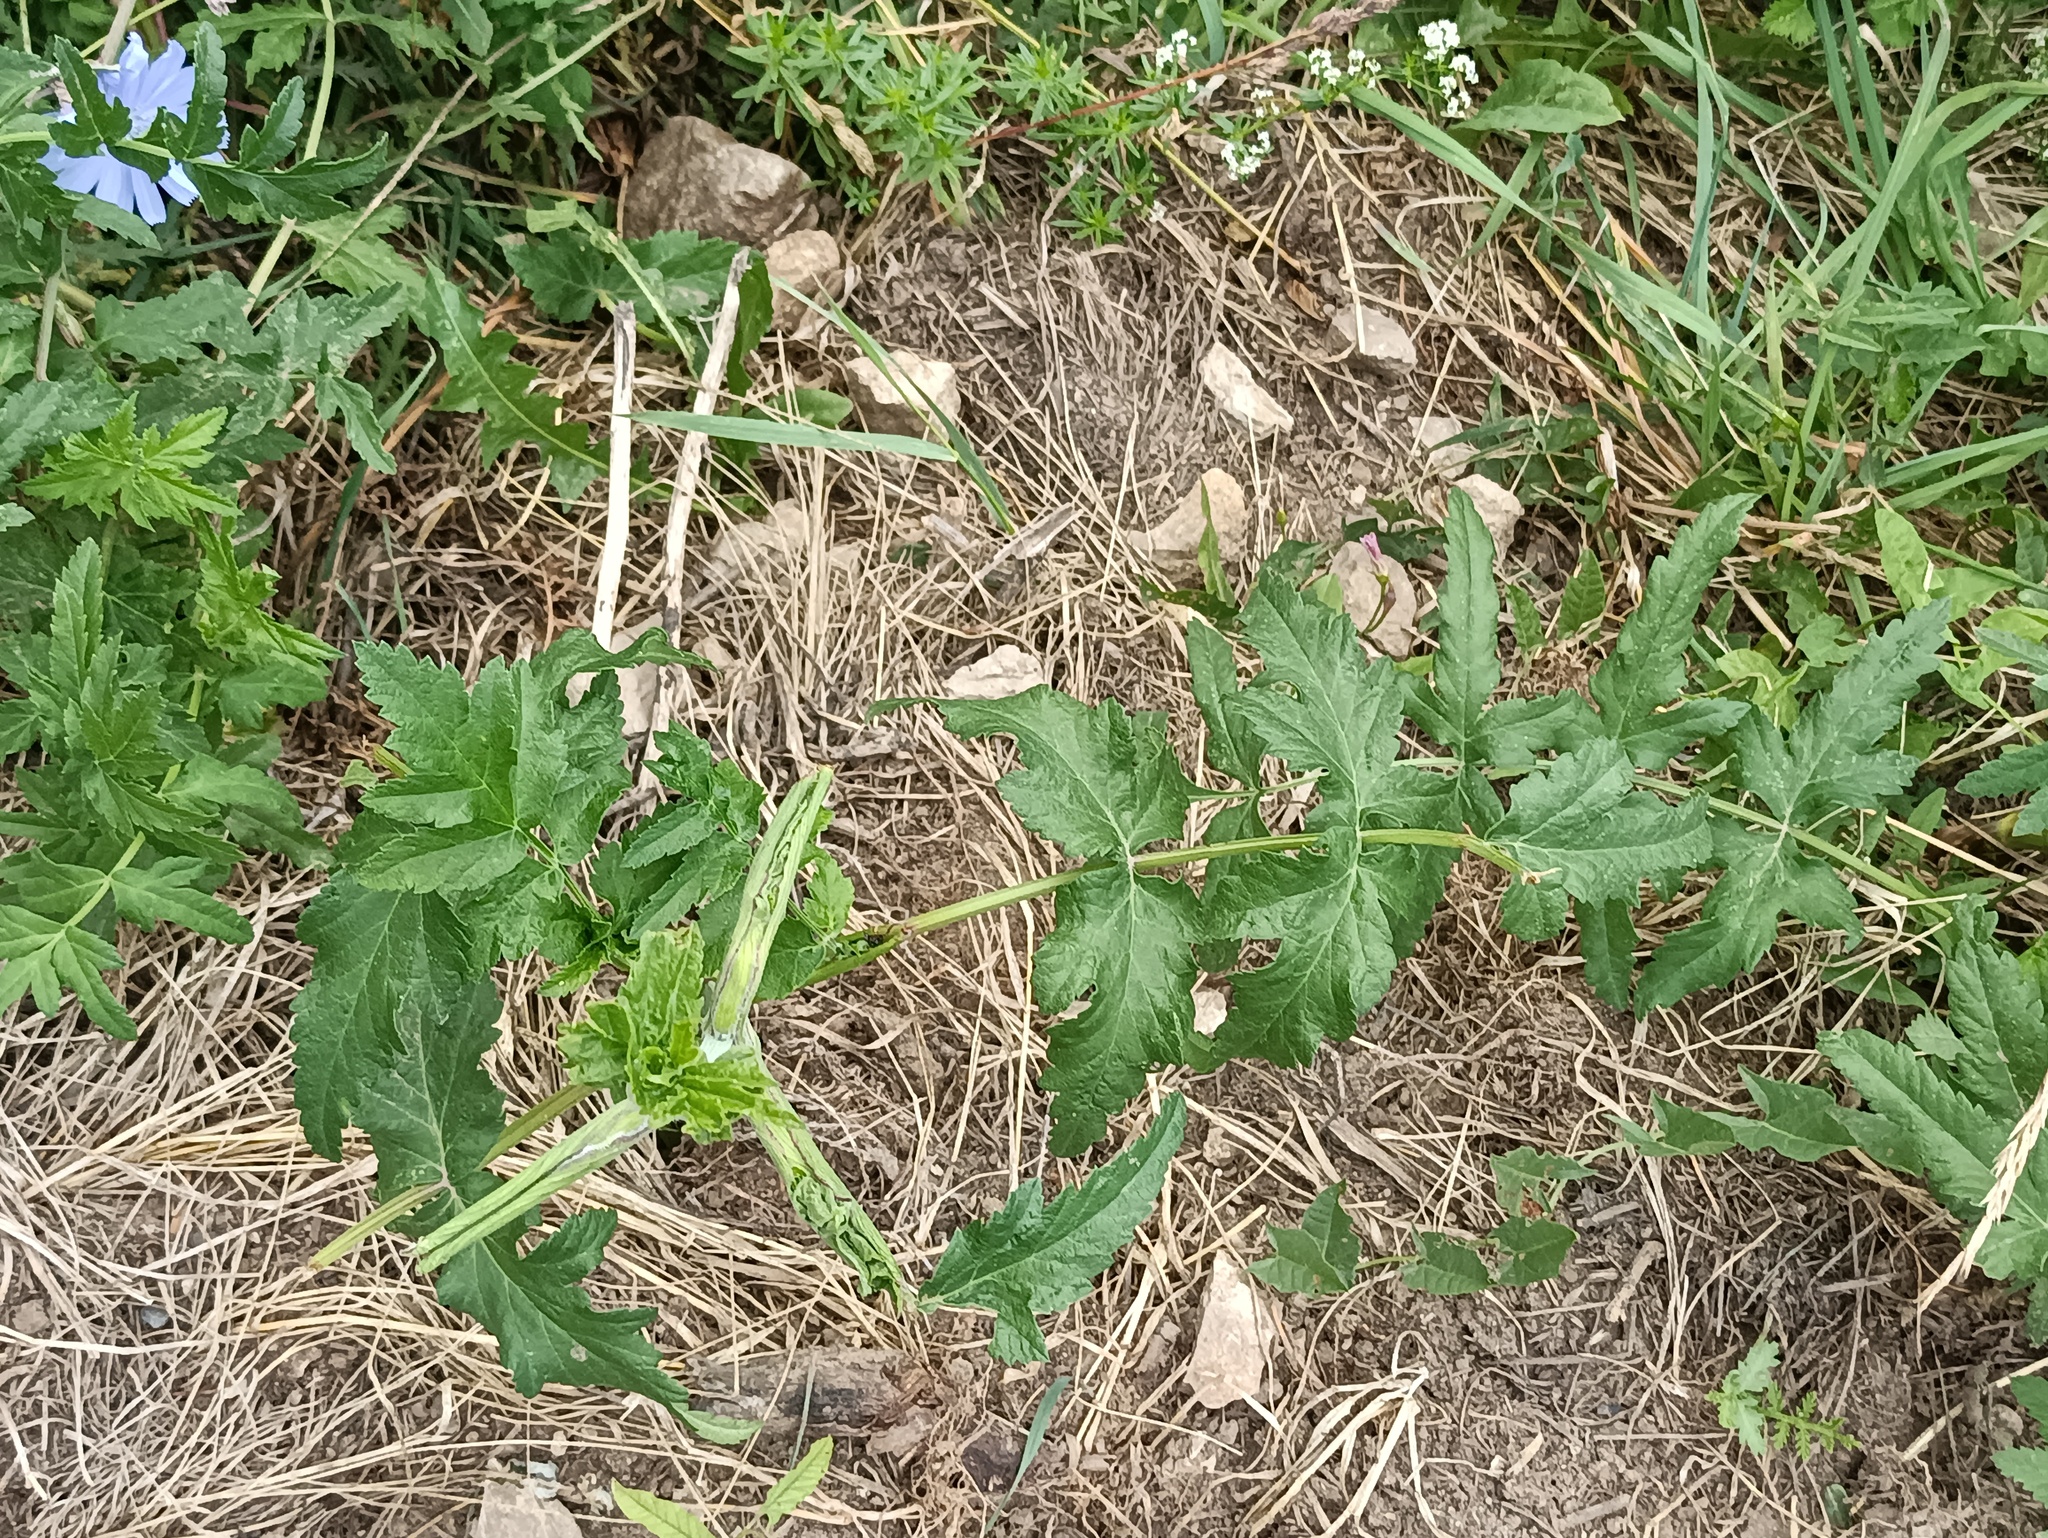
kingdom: Plantae
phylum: Tracheophyta
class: Magnoliopsida
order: Apiales
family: Apiaceae
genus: Pastinaca
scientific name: Pastinaca sativa
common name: Wild parsnip
